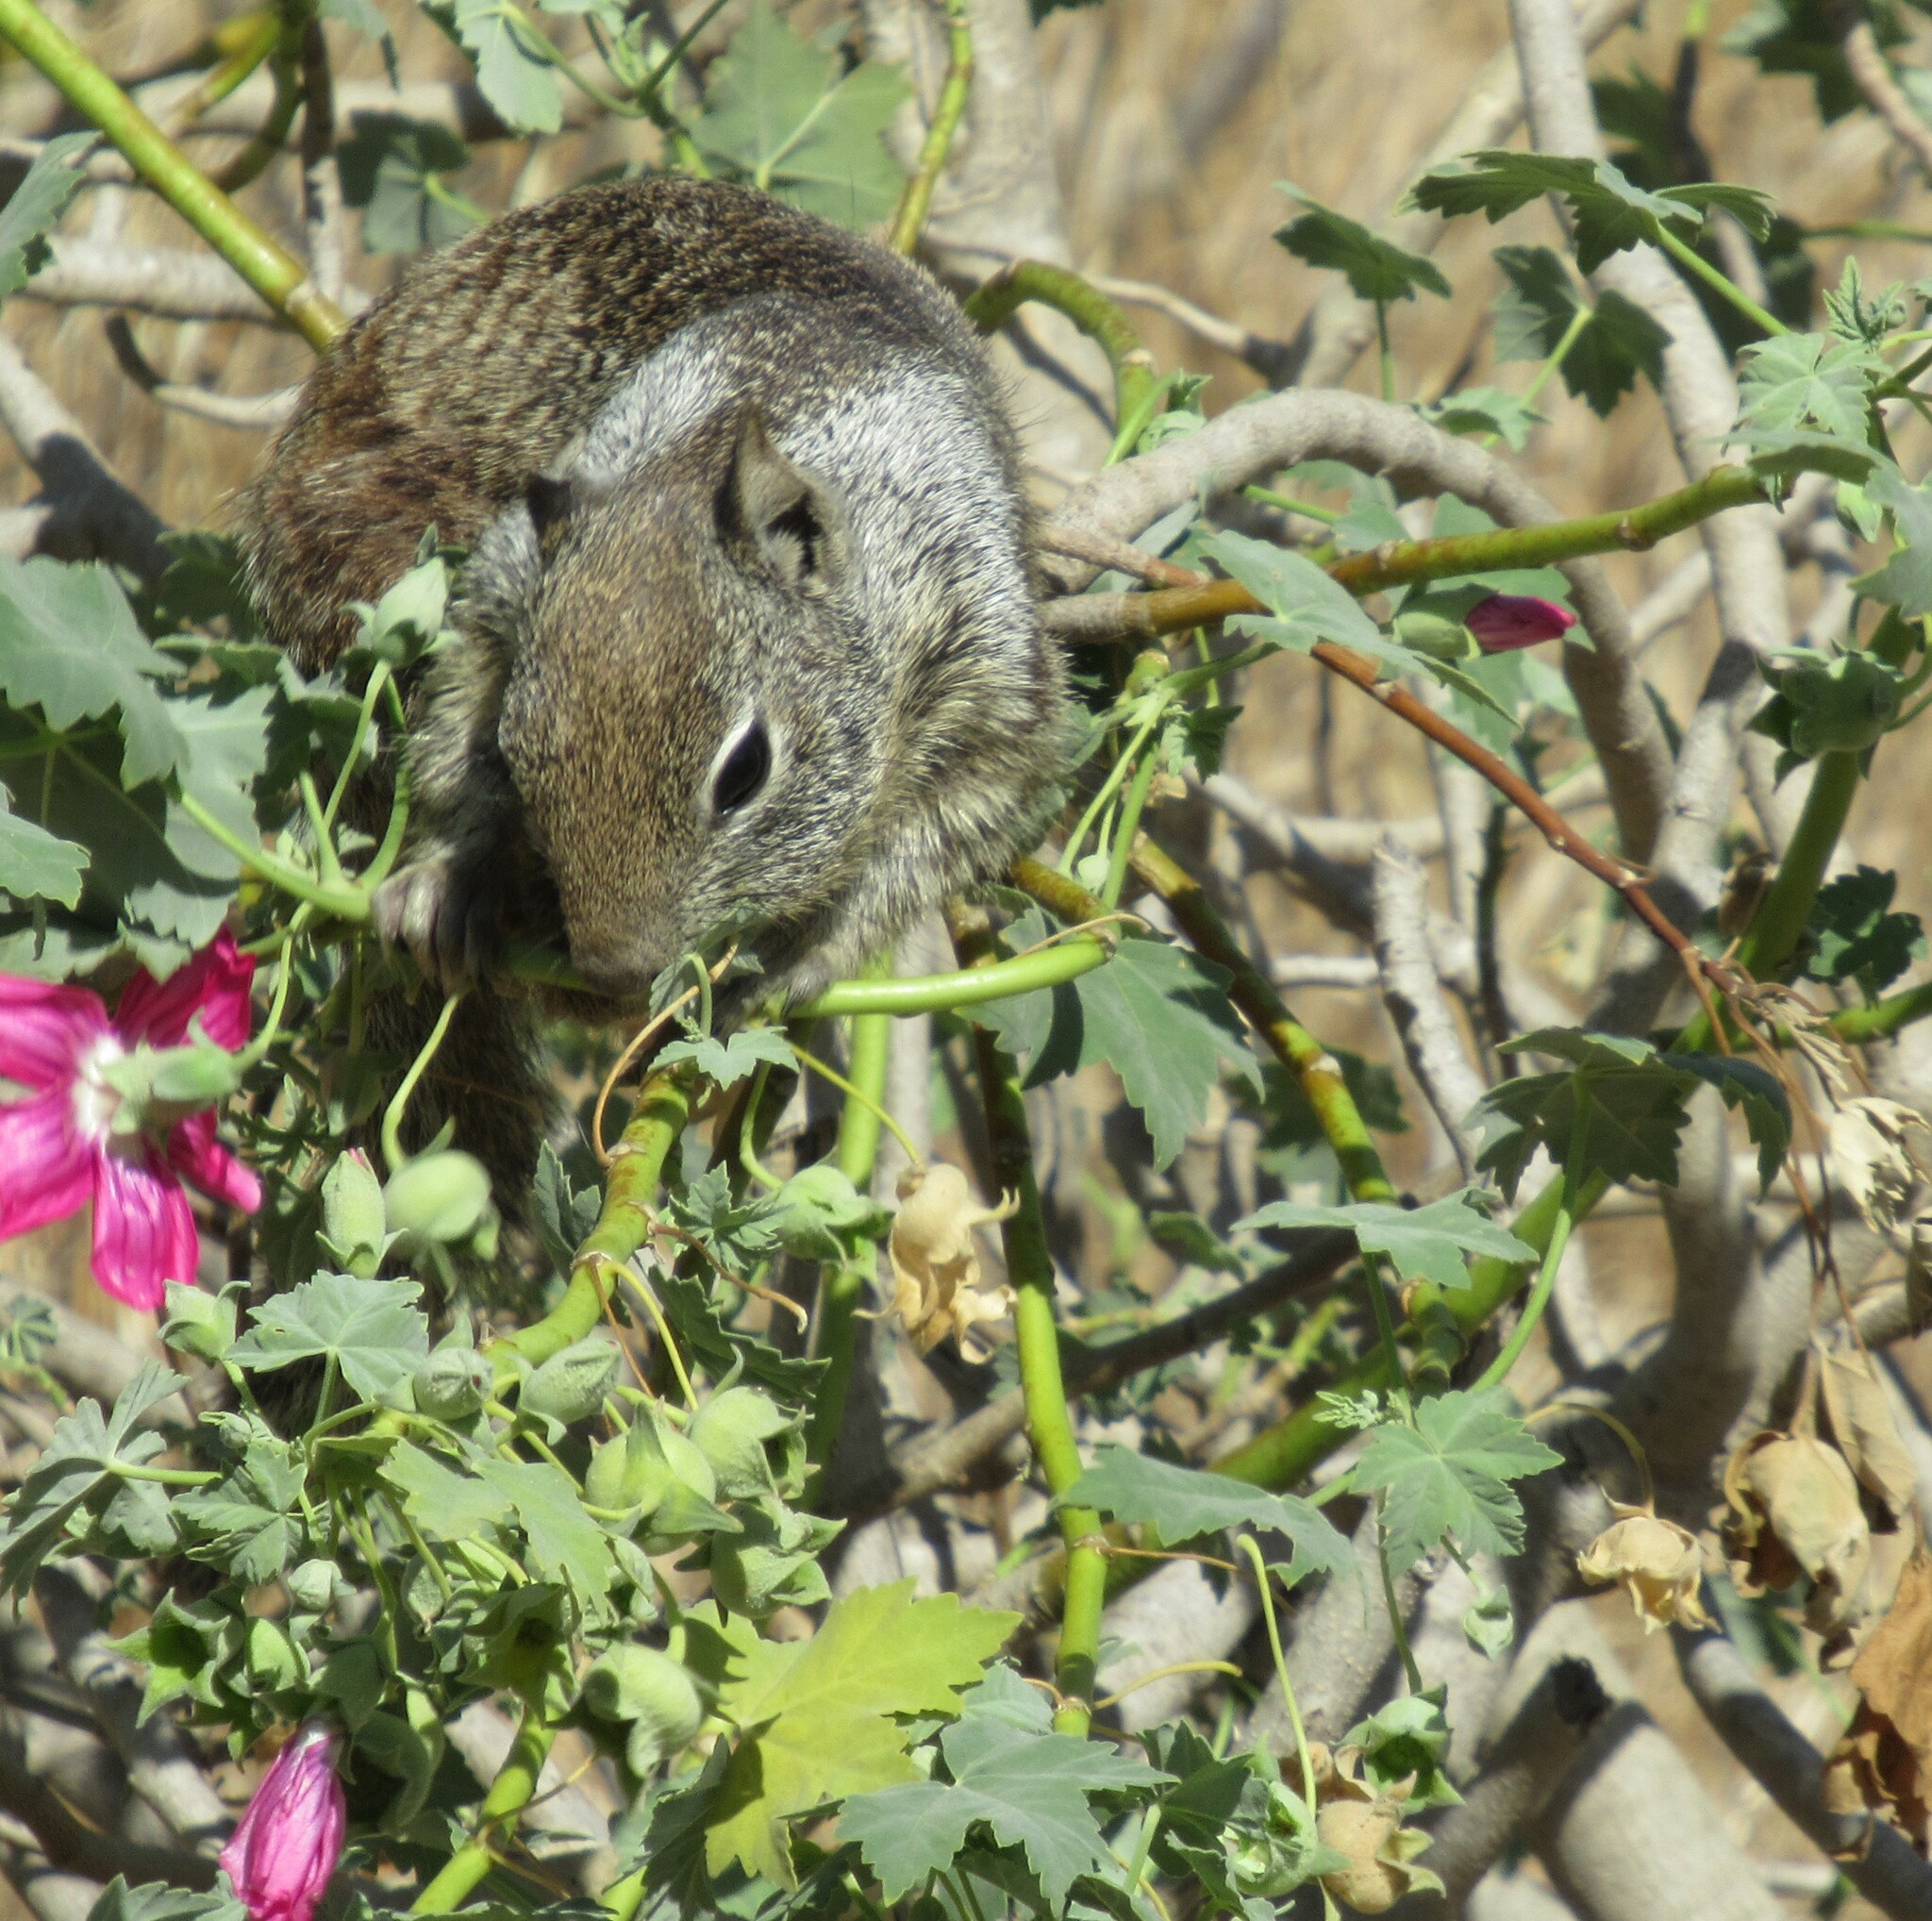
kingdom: Animalia
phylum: Chordata
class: Mammalia
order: Rodentia
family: Sciuridae
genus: Otospermophilus
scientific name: Otospermophilus beecheyi
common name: California ground squirrel
